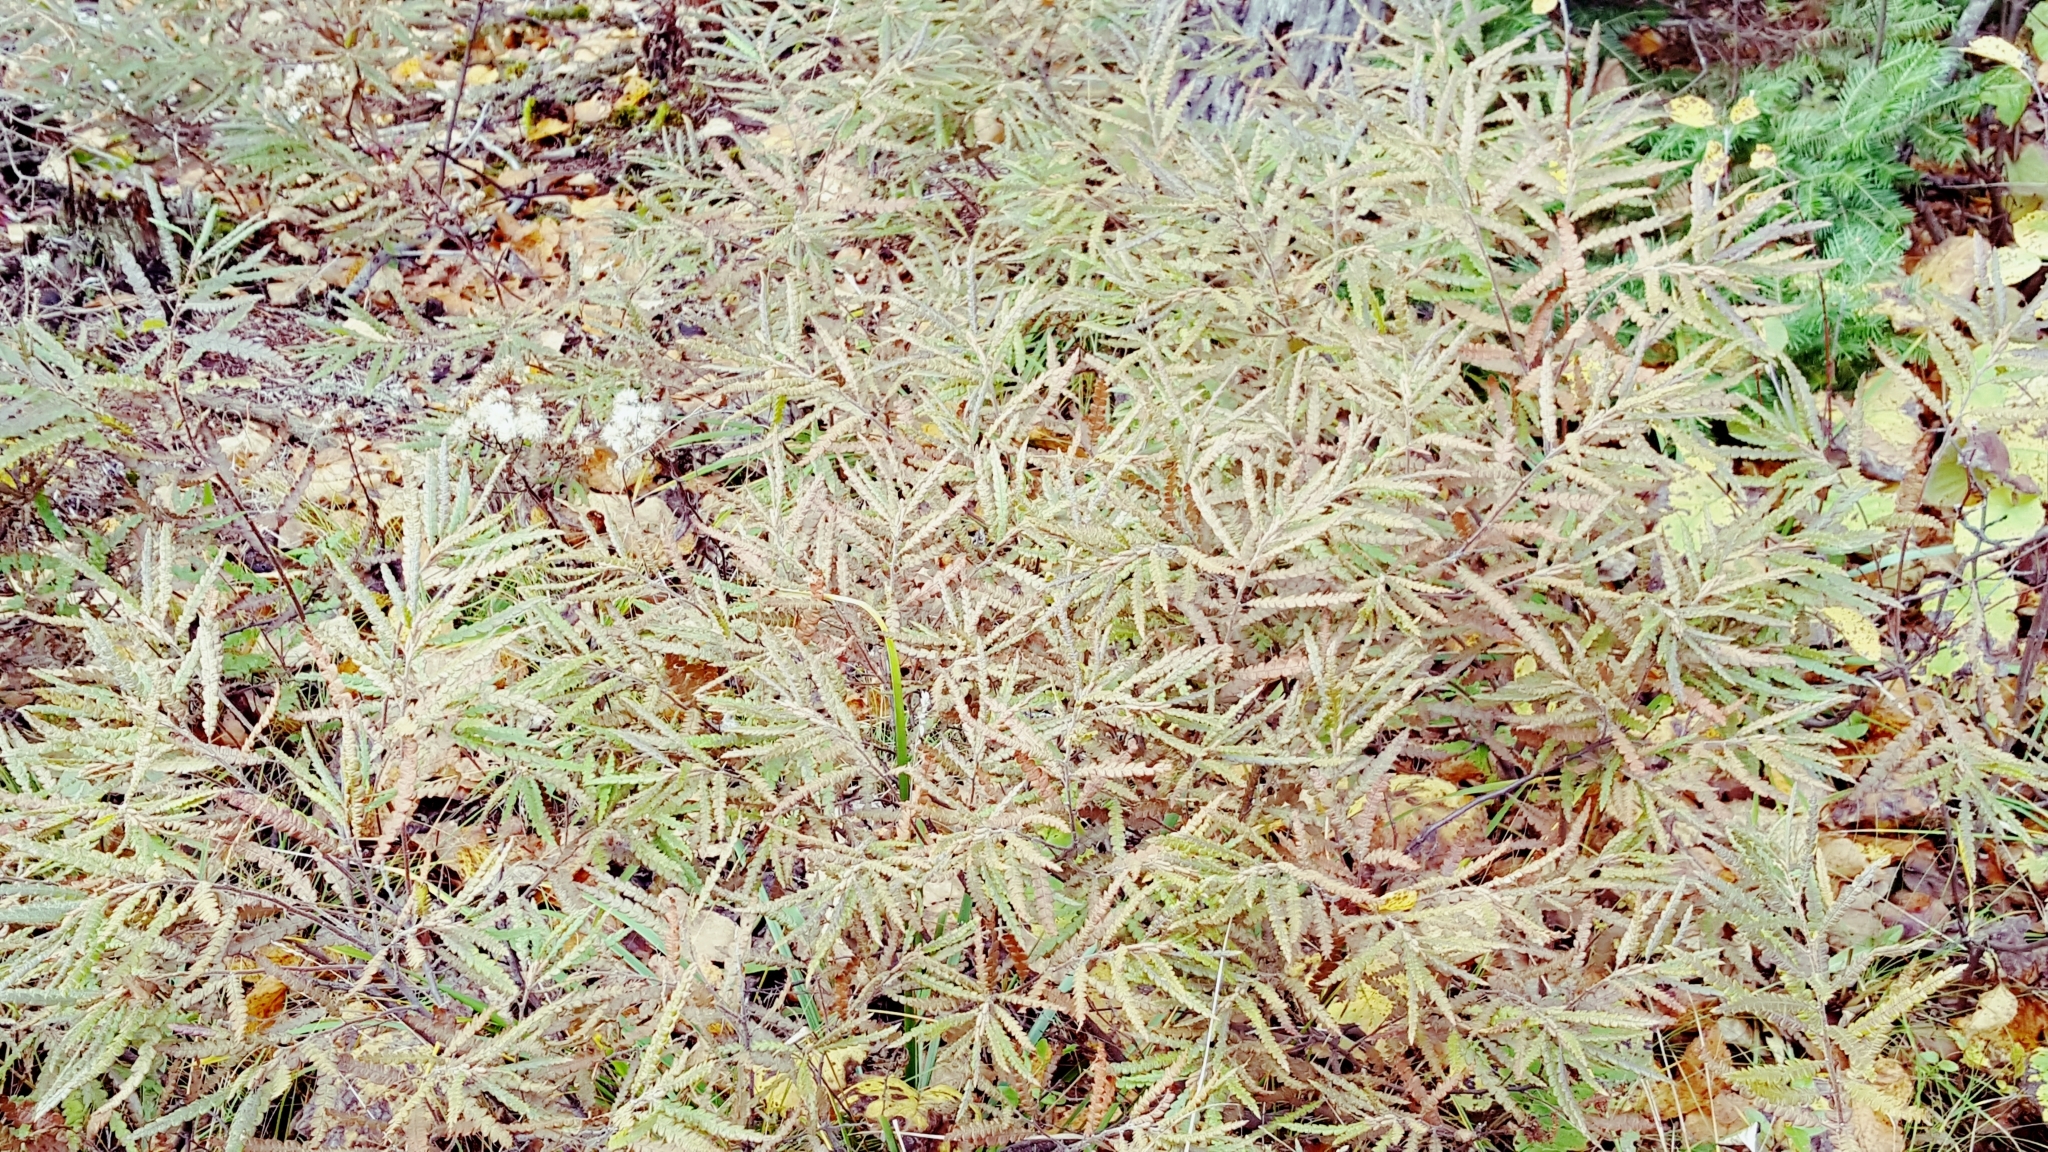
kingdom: Plantae
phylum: Tracheophyta
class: Magnoliopsida
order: Fagales
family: Myricaceae
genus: Comptonia
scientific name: Comptonia peregrina
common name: Sweet-fern
